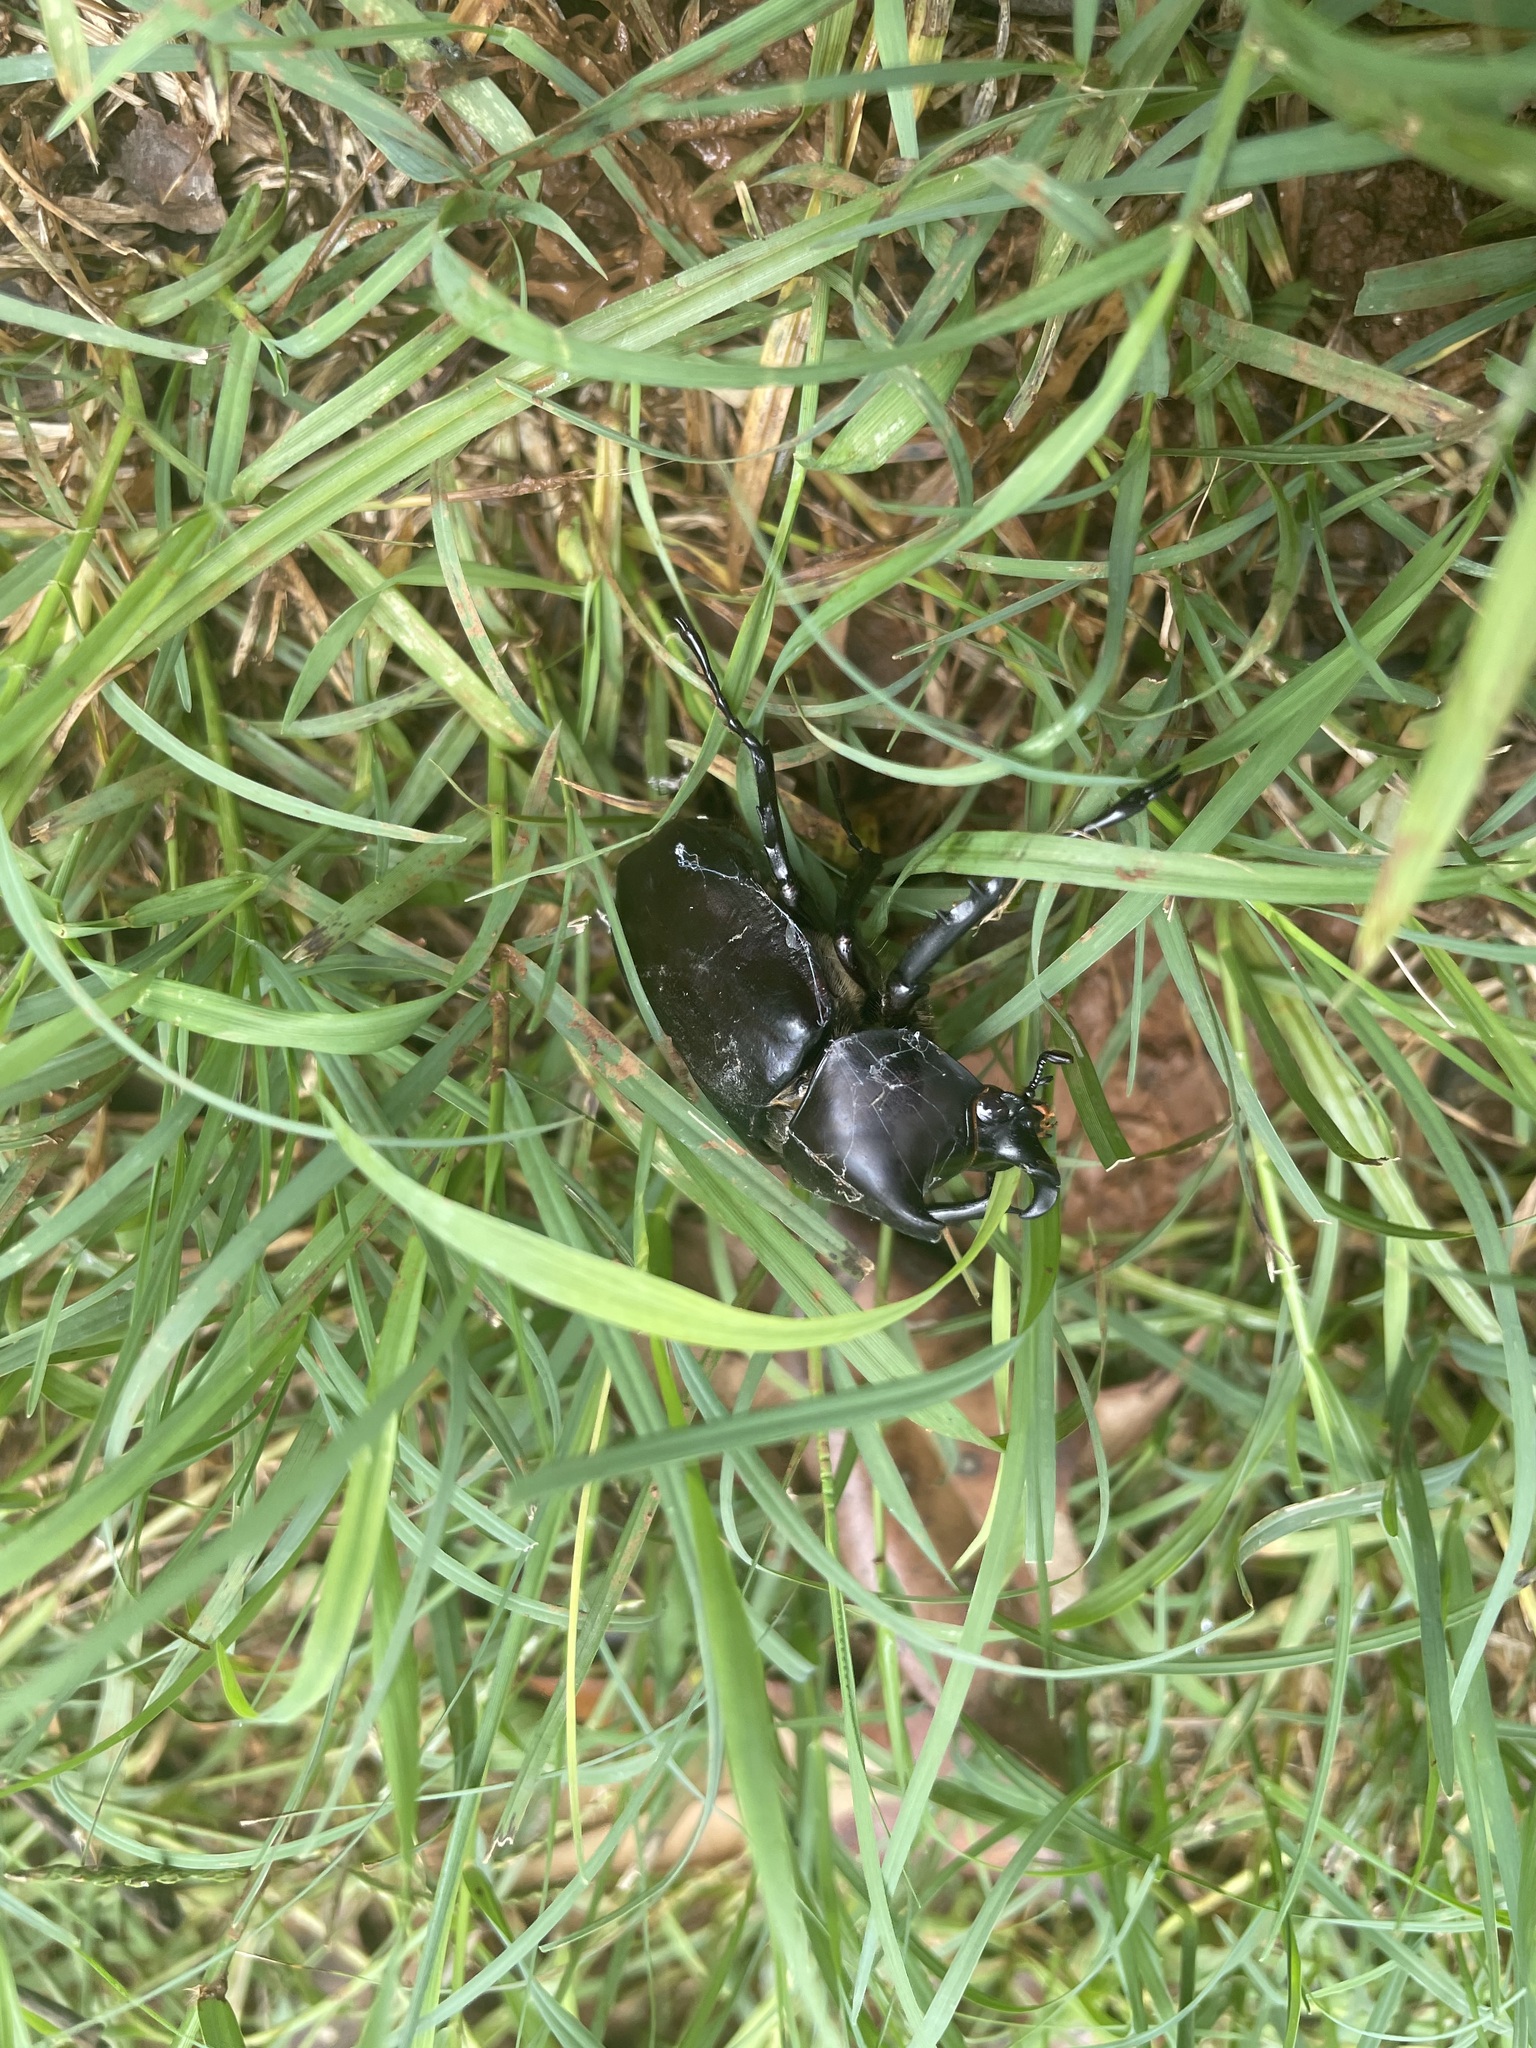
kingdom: Animalia
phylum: Arthropoda
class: Insecta
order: Coleoptera
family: Scarabaeidae
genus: Xylotrupes
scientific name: Xylotrupes australicus
